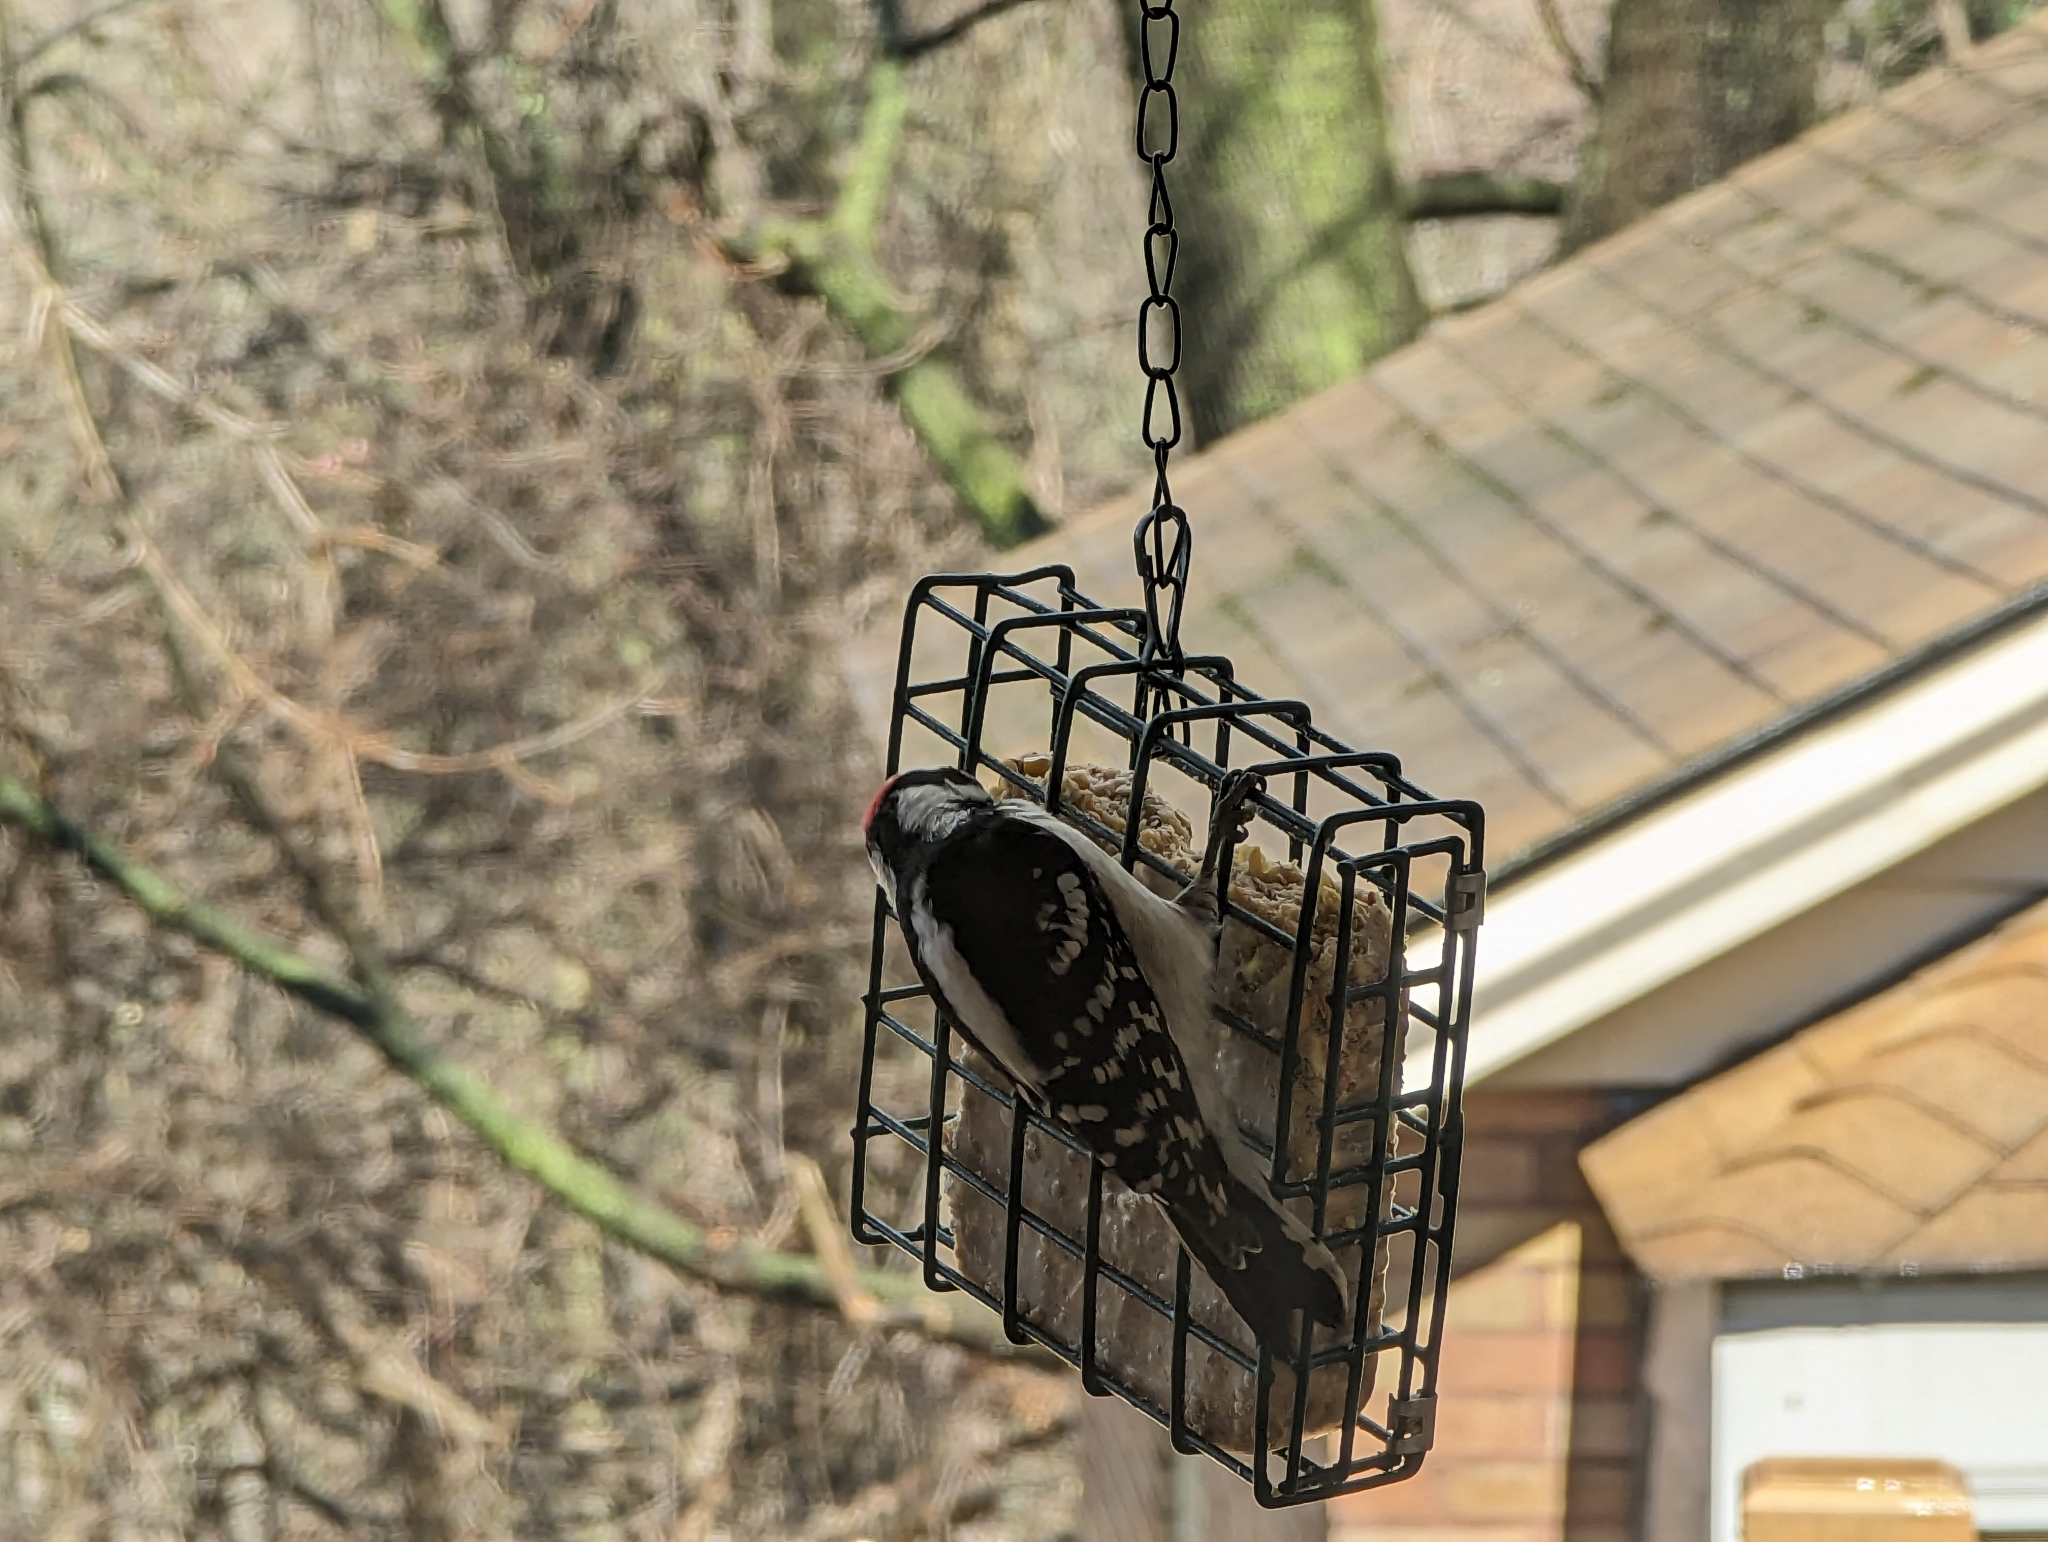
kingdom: Animalia
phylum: Chordata
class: Aves
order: Piciformes
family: Picidae
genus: Dryobates
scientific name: Dryobates pubescens
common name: Downy woodpecker
